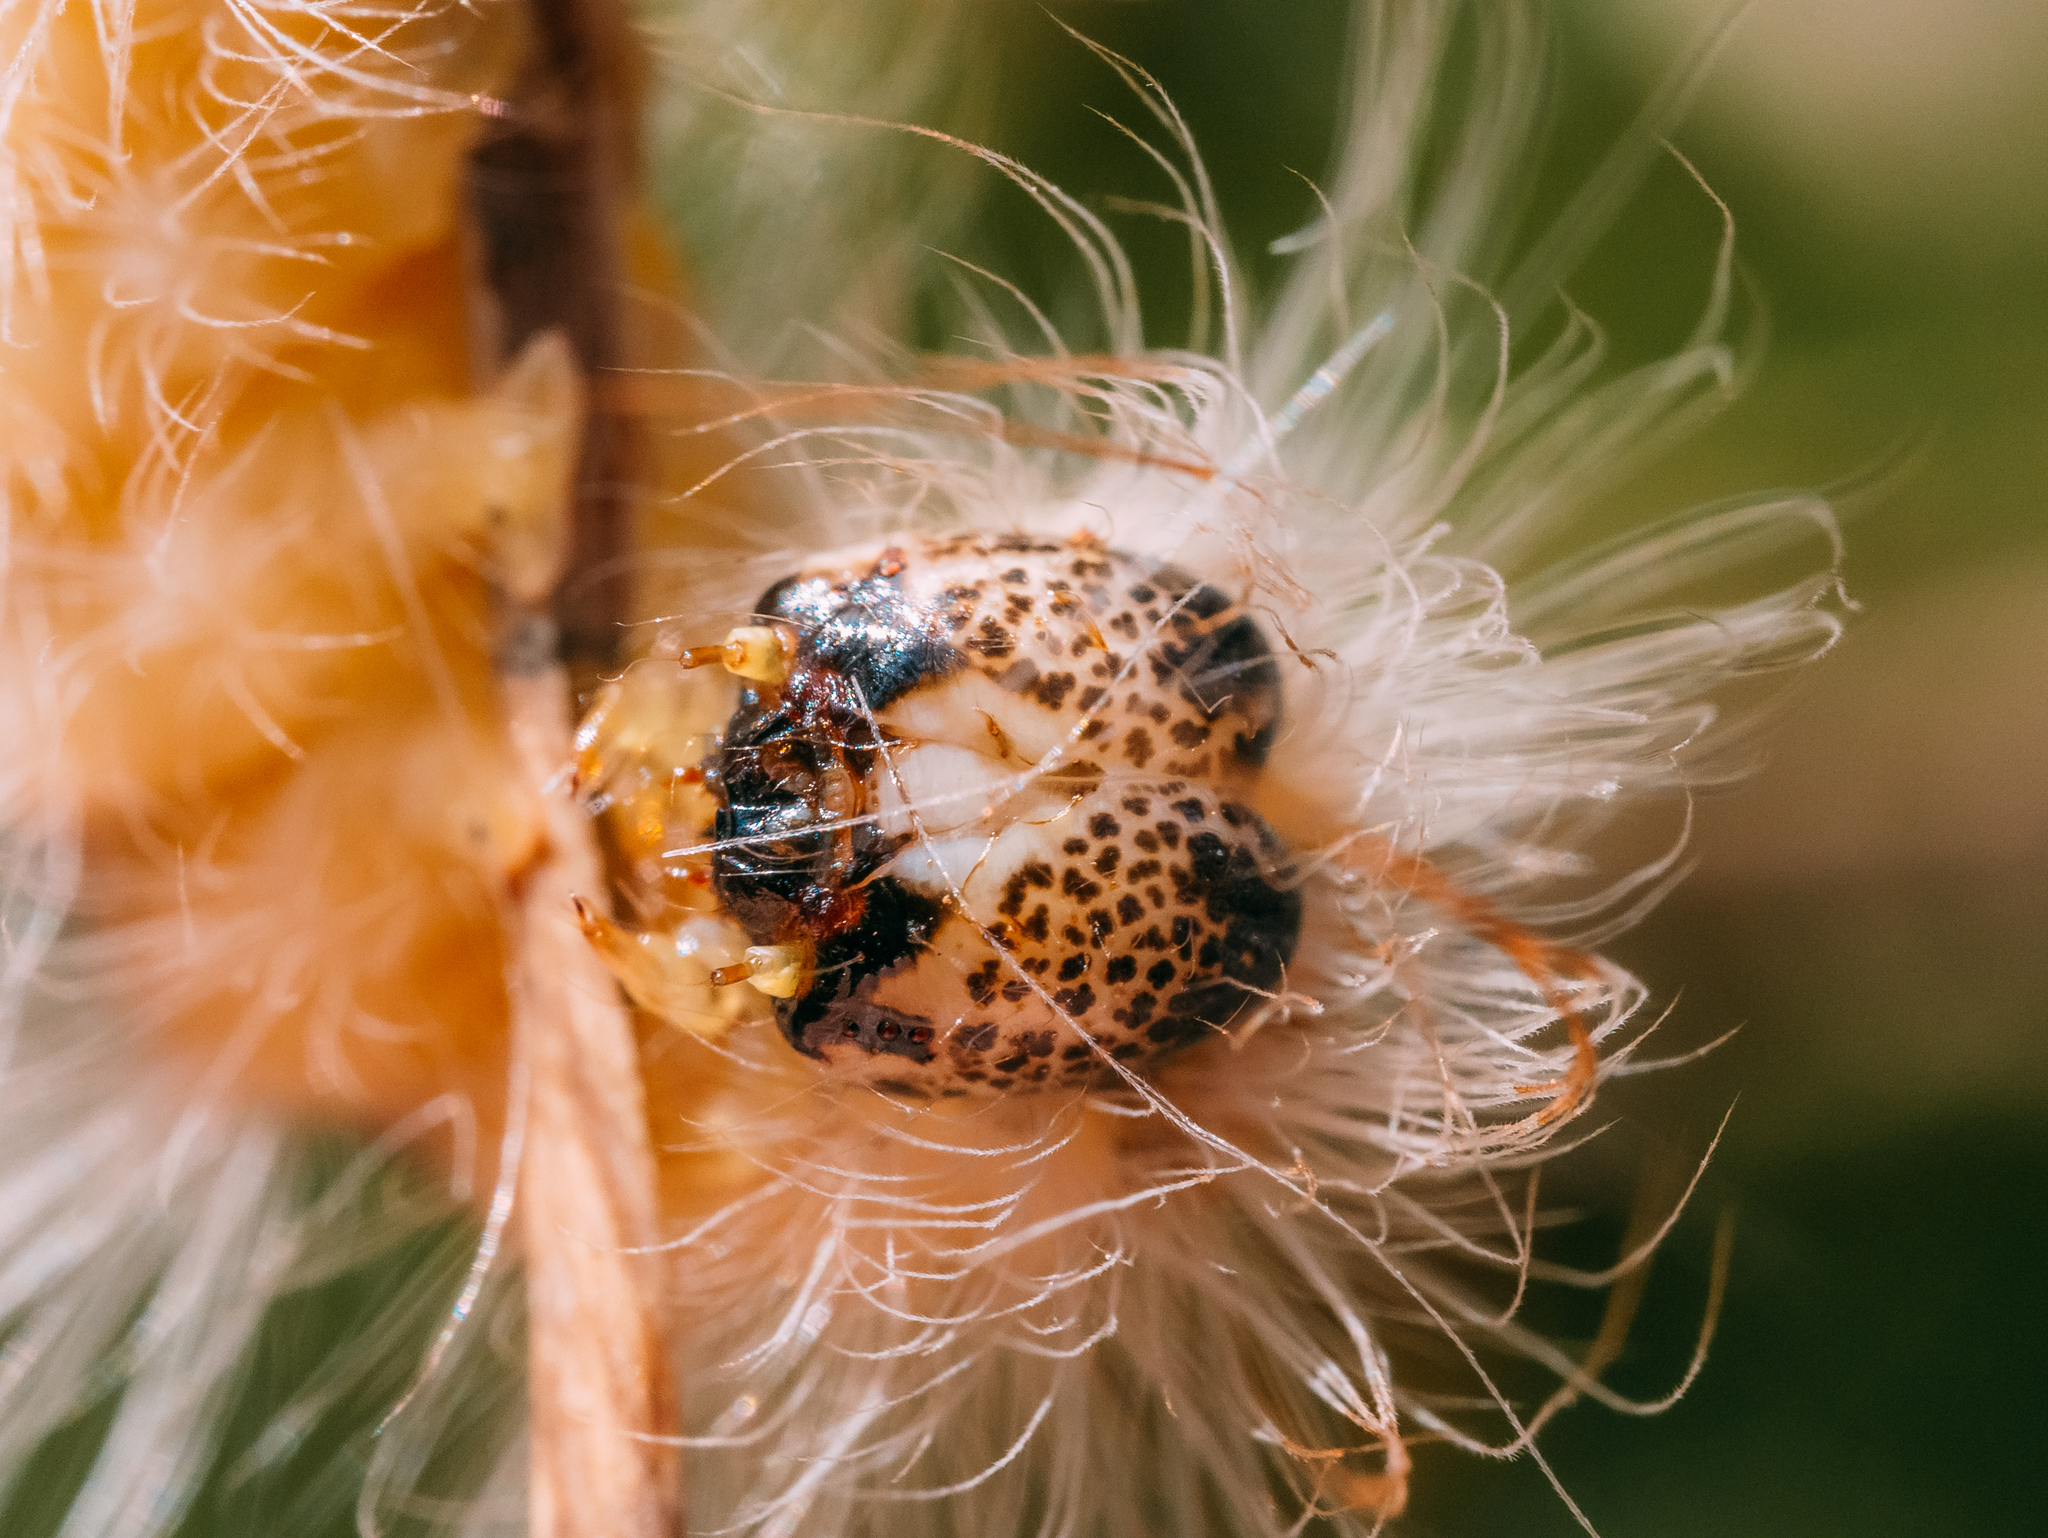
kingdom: Animalia
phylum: Arthropoda
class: Insecta
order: Lepidoptera
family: Noctuidae
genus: Moma
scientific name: Moma alpium
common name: Scarce merveille du jour
